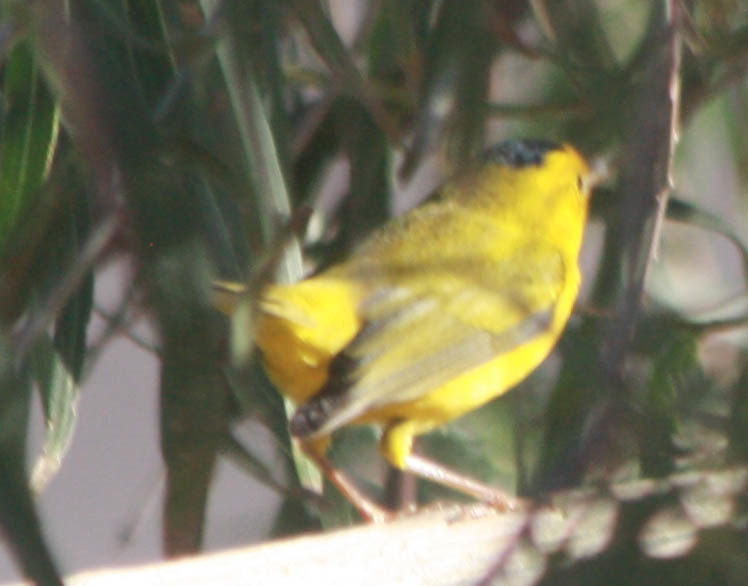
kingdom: Animalia
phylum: Chordata
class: Aves
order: Passeriformes
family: Parulidae
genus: Cardellina
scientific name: Cardellina pusilla
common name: Wilson's warbler
